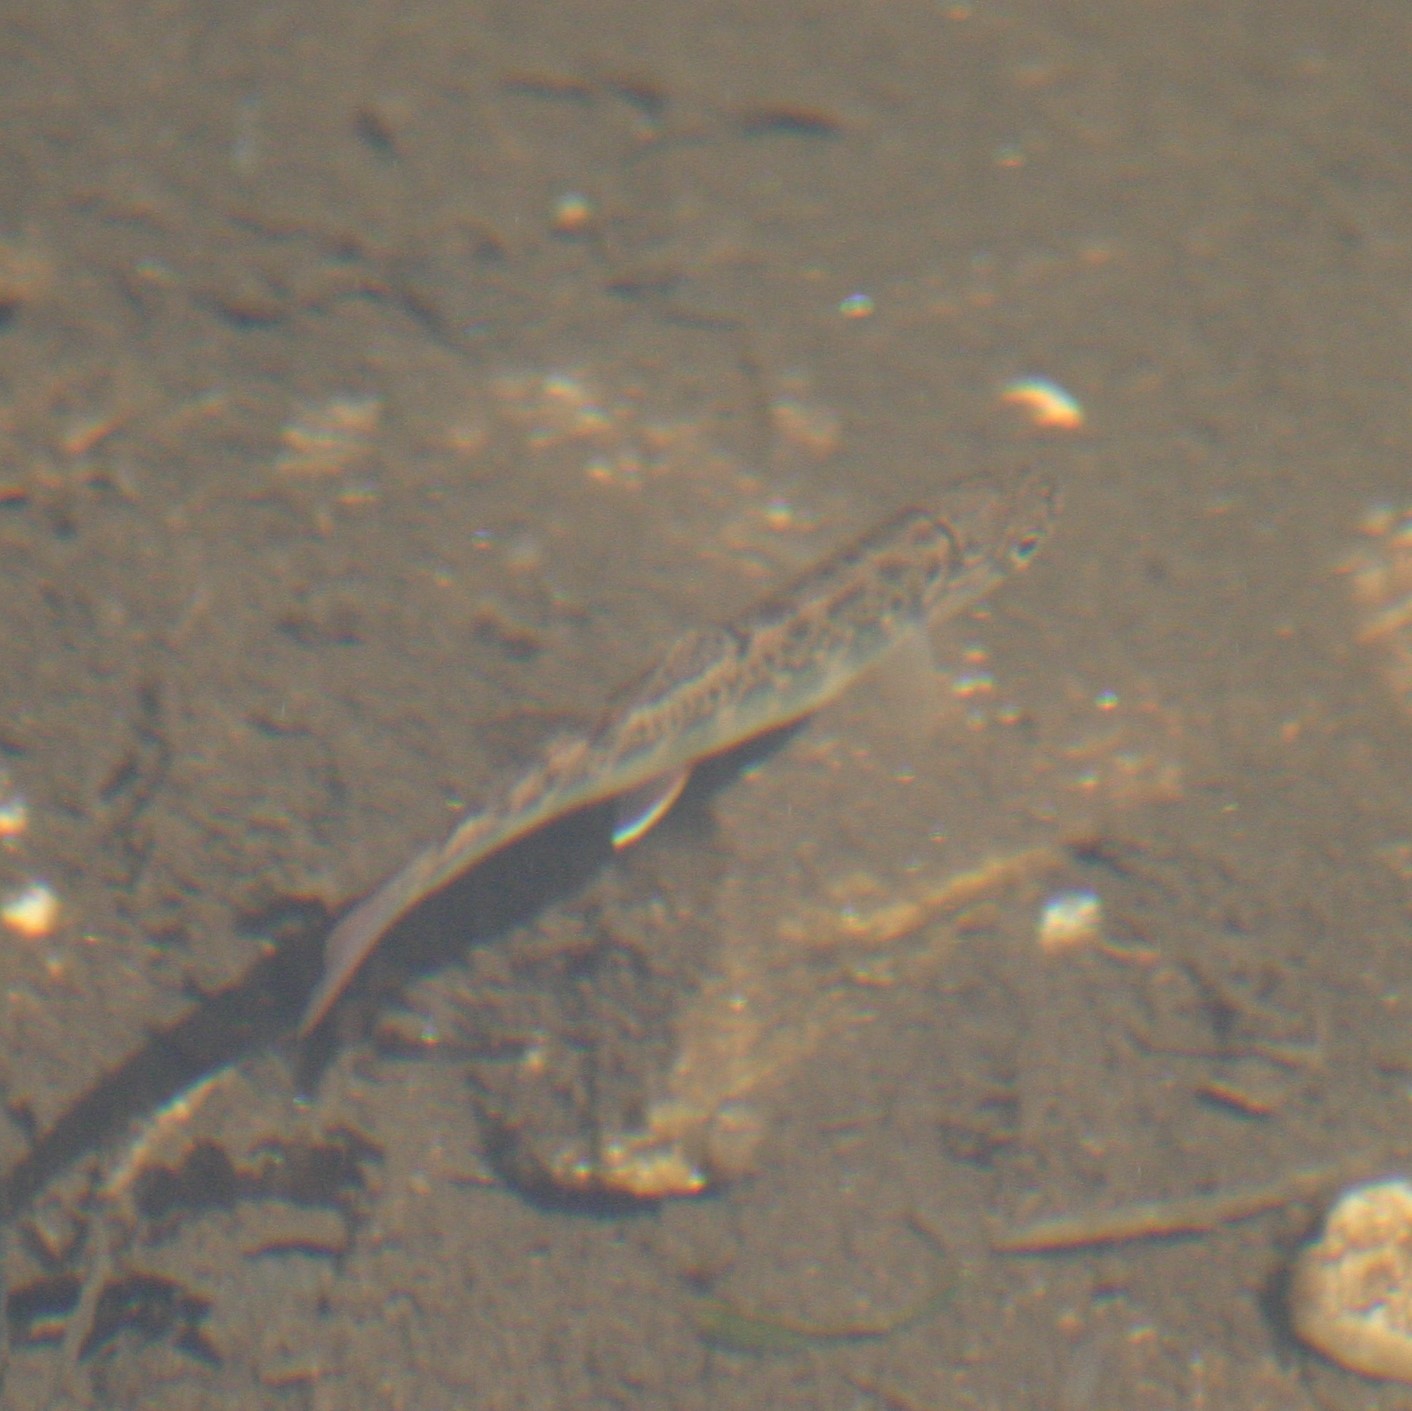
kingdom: Animalia
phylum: Chordata
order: Salmoniformes
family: Salmonidae
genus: Salvelinus
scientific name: Salvelinus fontinalis
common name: Brook trout
